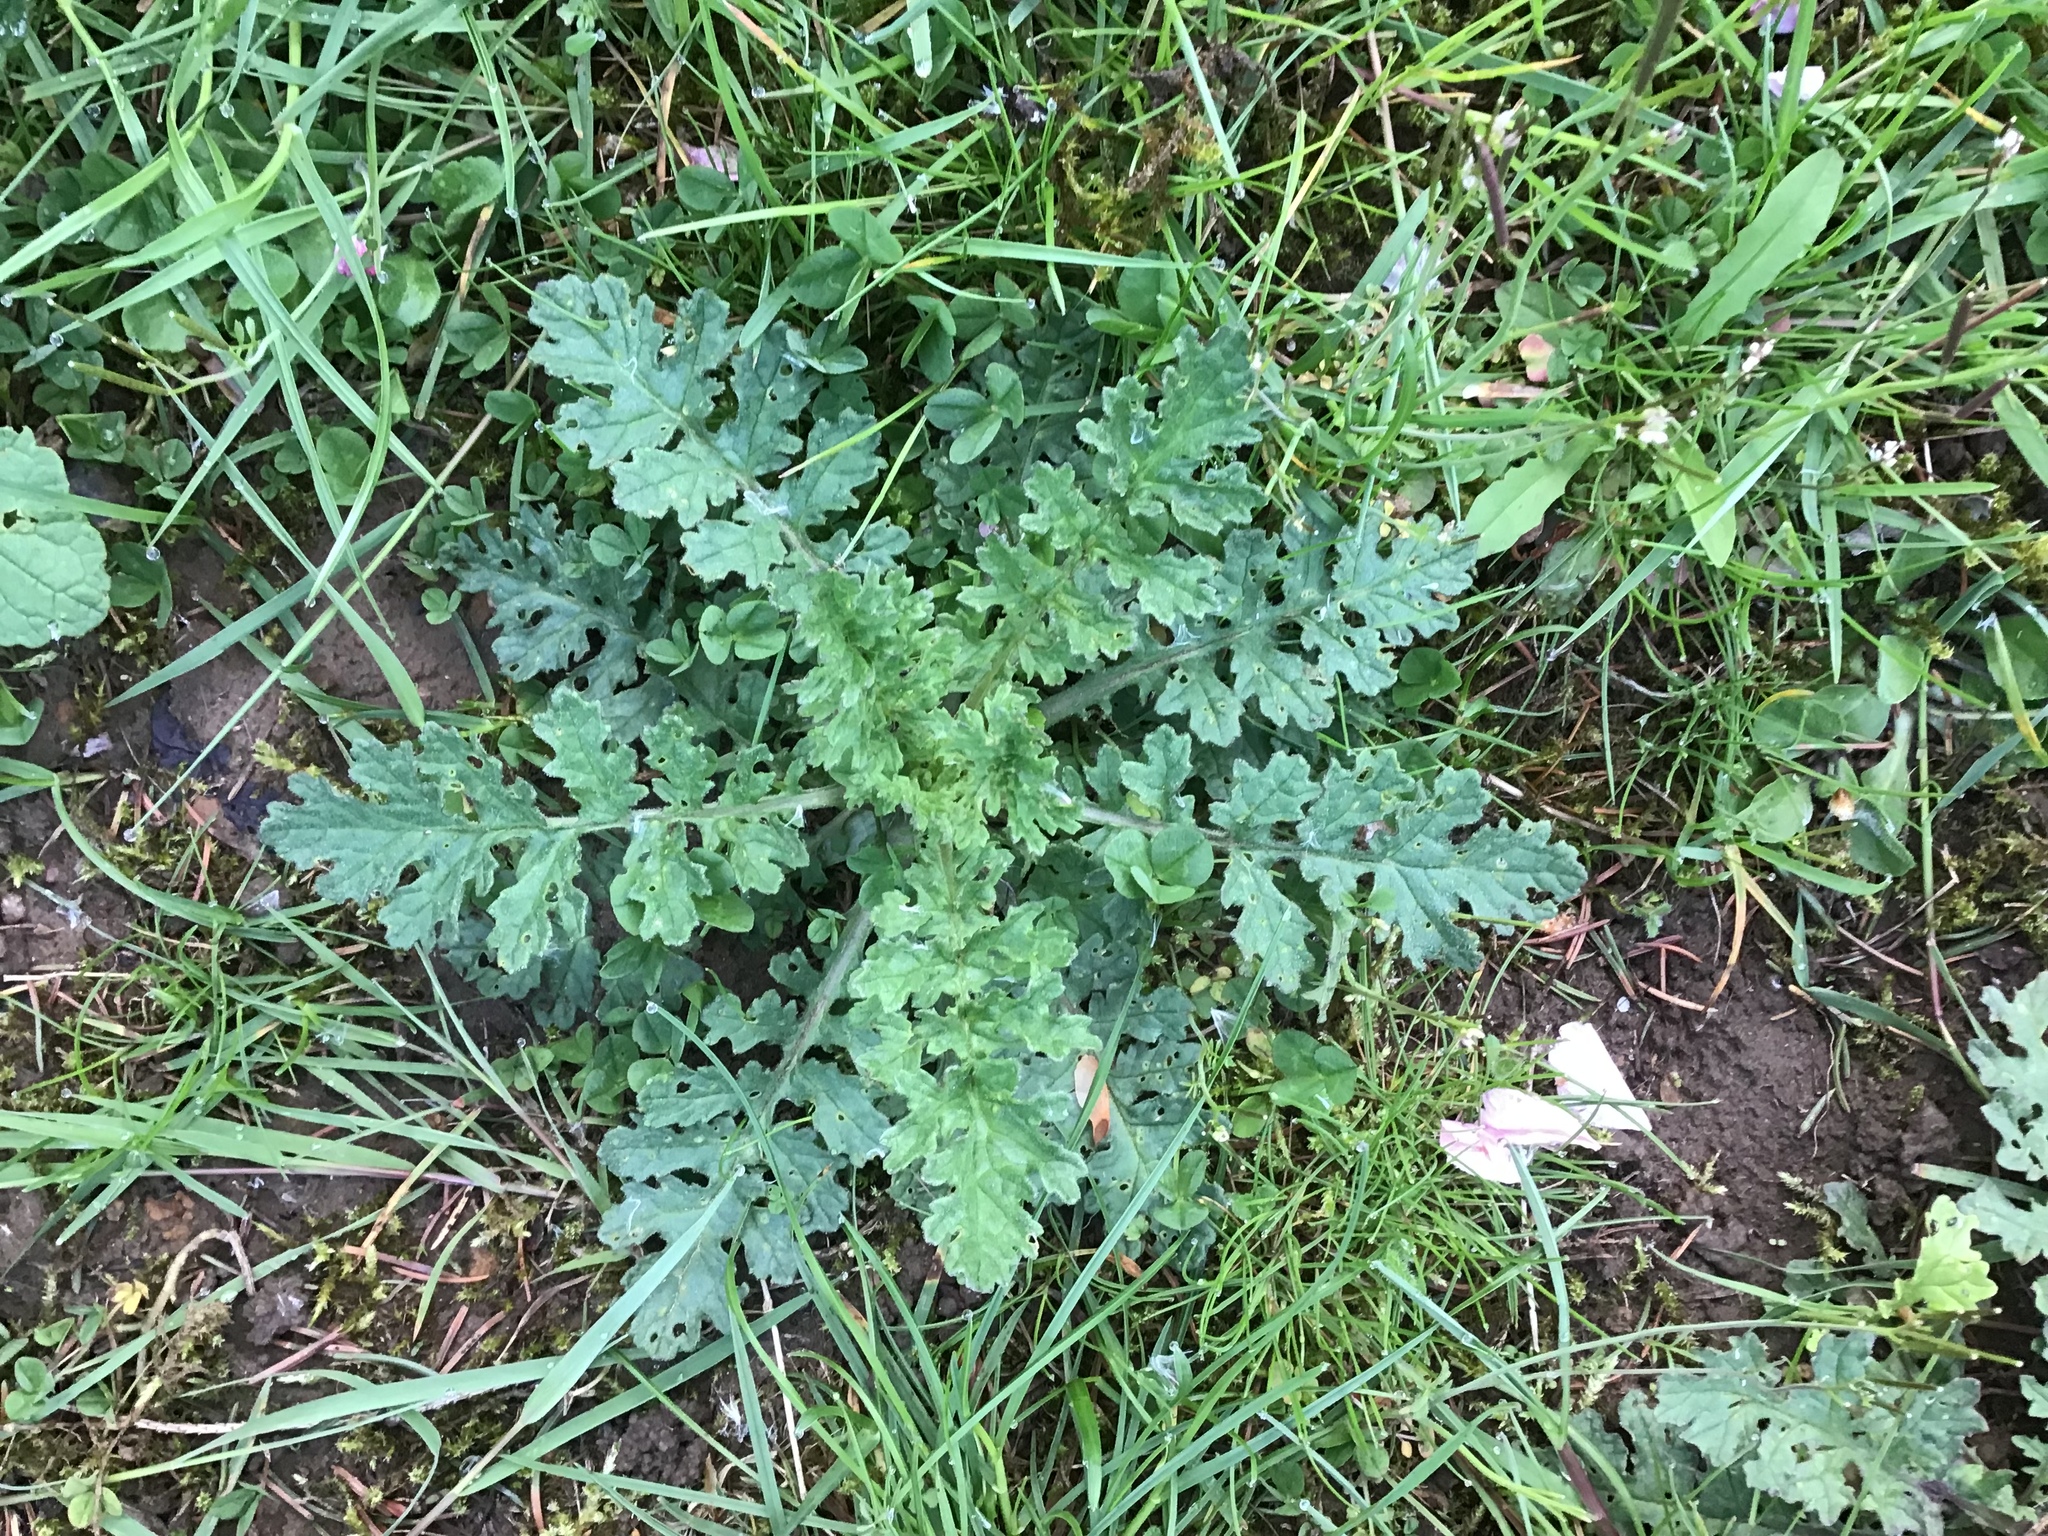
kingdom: Plantae
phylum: Tracheophyta
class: Magnoliopsida
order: Asterales
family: Asteraceae
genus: Jacobaea
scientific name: Jacobaea vulgaris
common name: Stinking willie
